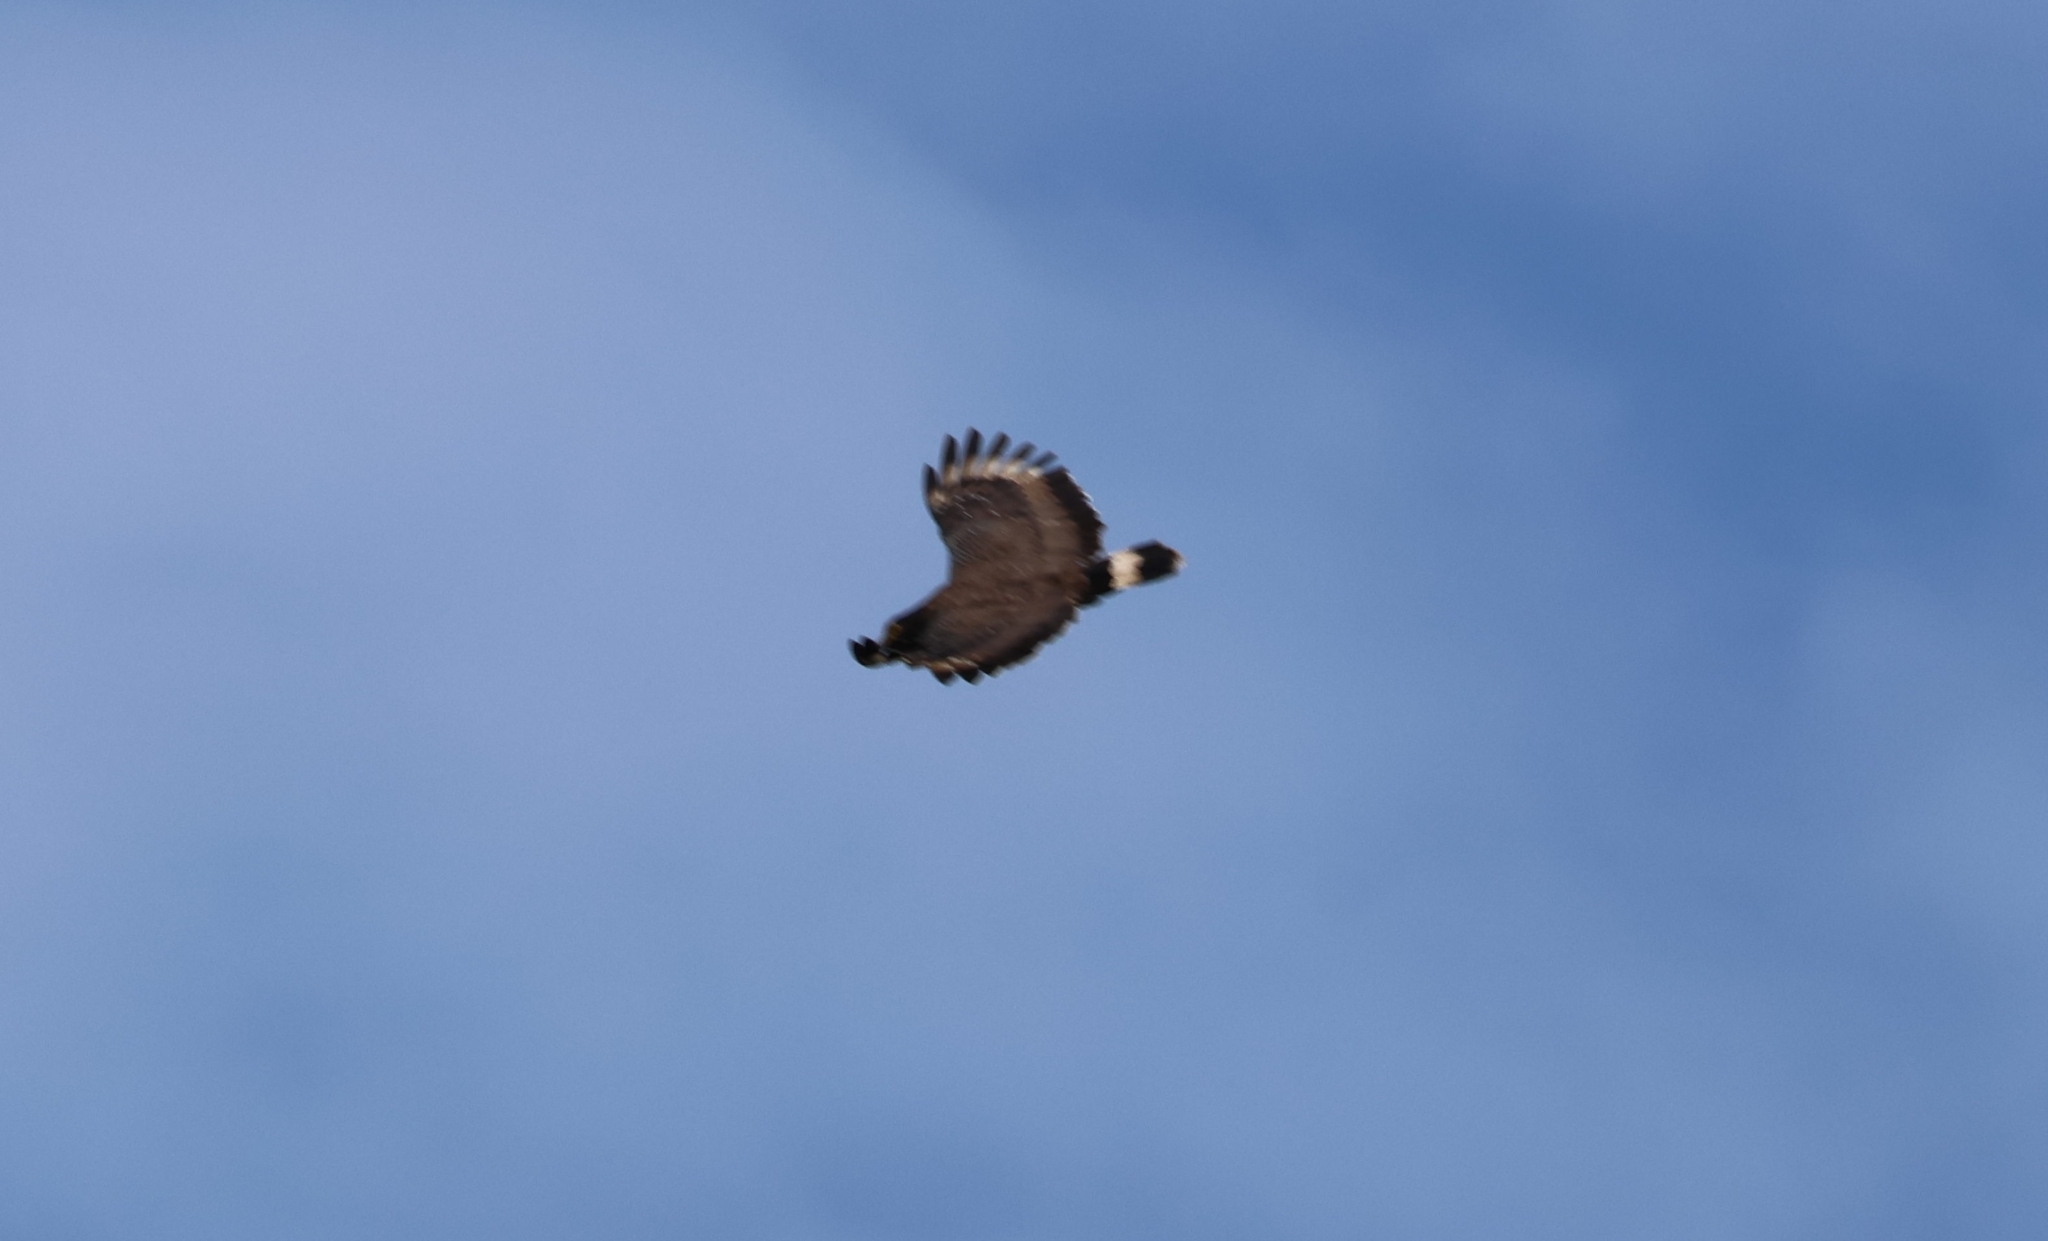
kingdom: Animalia
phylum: Chordata
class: Aves
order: Accipitriformes
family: Accipitridae
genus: Spilornis
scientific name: Spilornis cheela
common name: Crested serpent eagle
